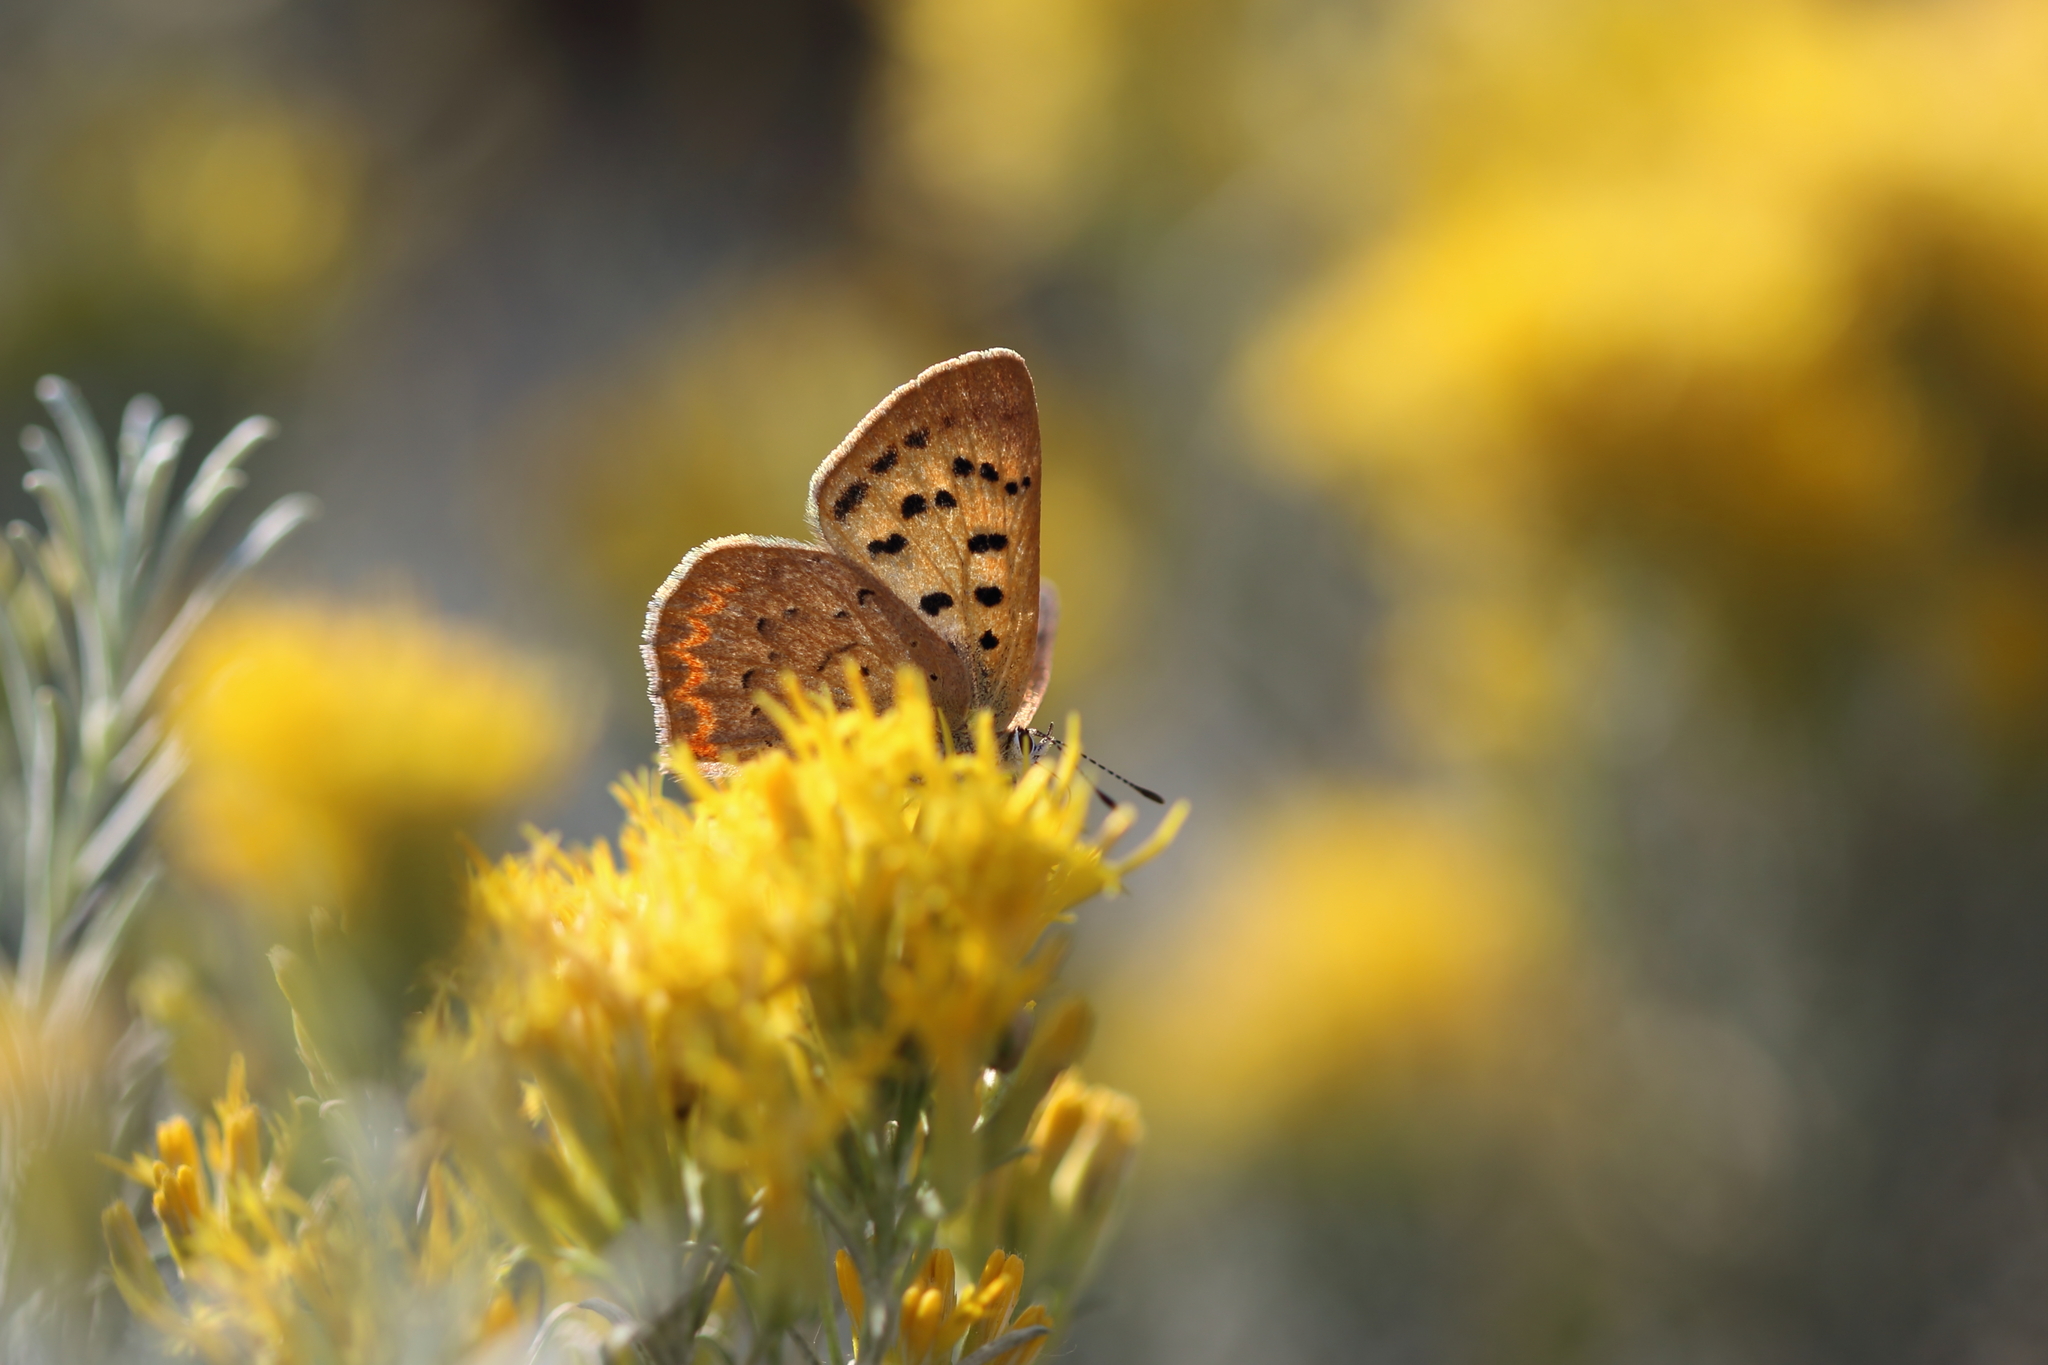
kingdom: Animalia
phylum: Arthropoda
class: Insecta
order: Lepidoptera
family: Lycaenidae
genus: Tharsalea
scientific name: Tharsalea helloides
